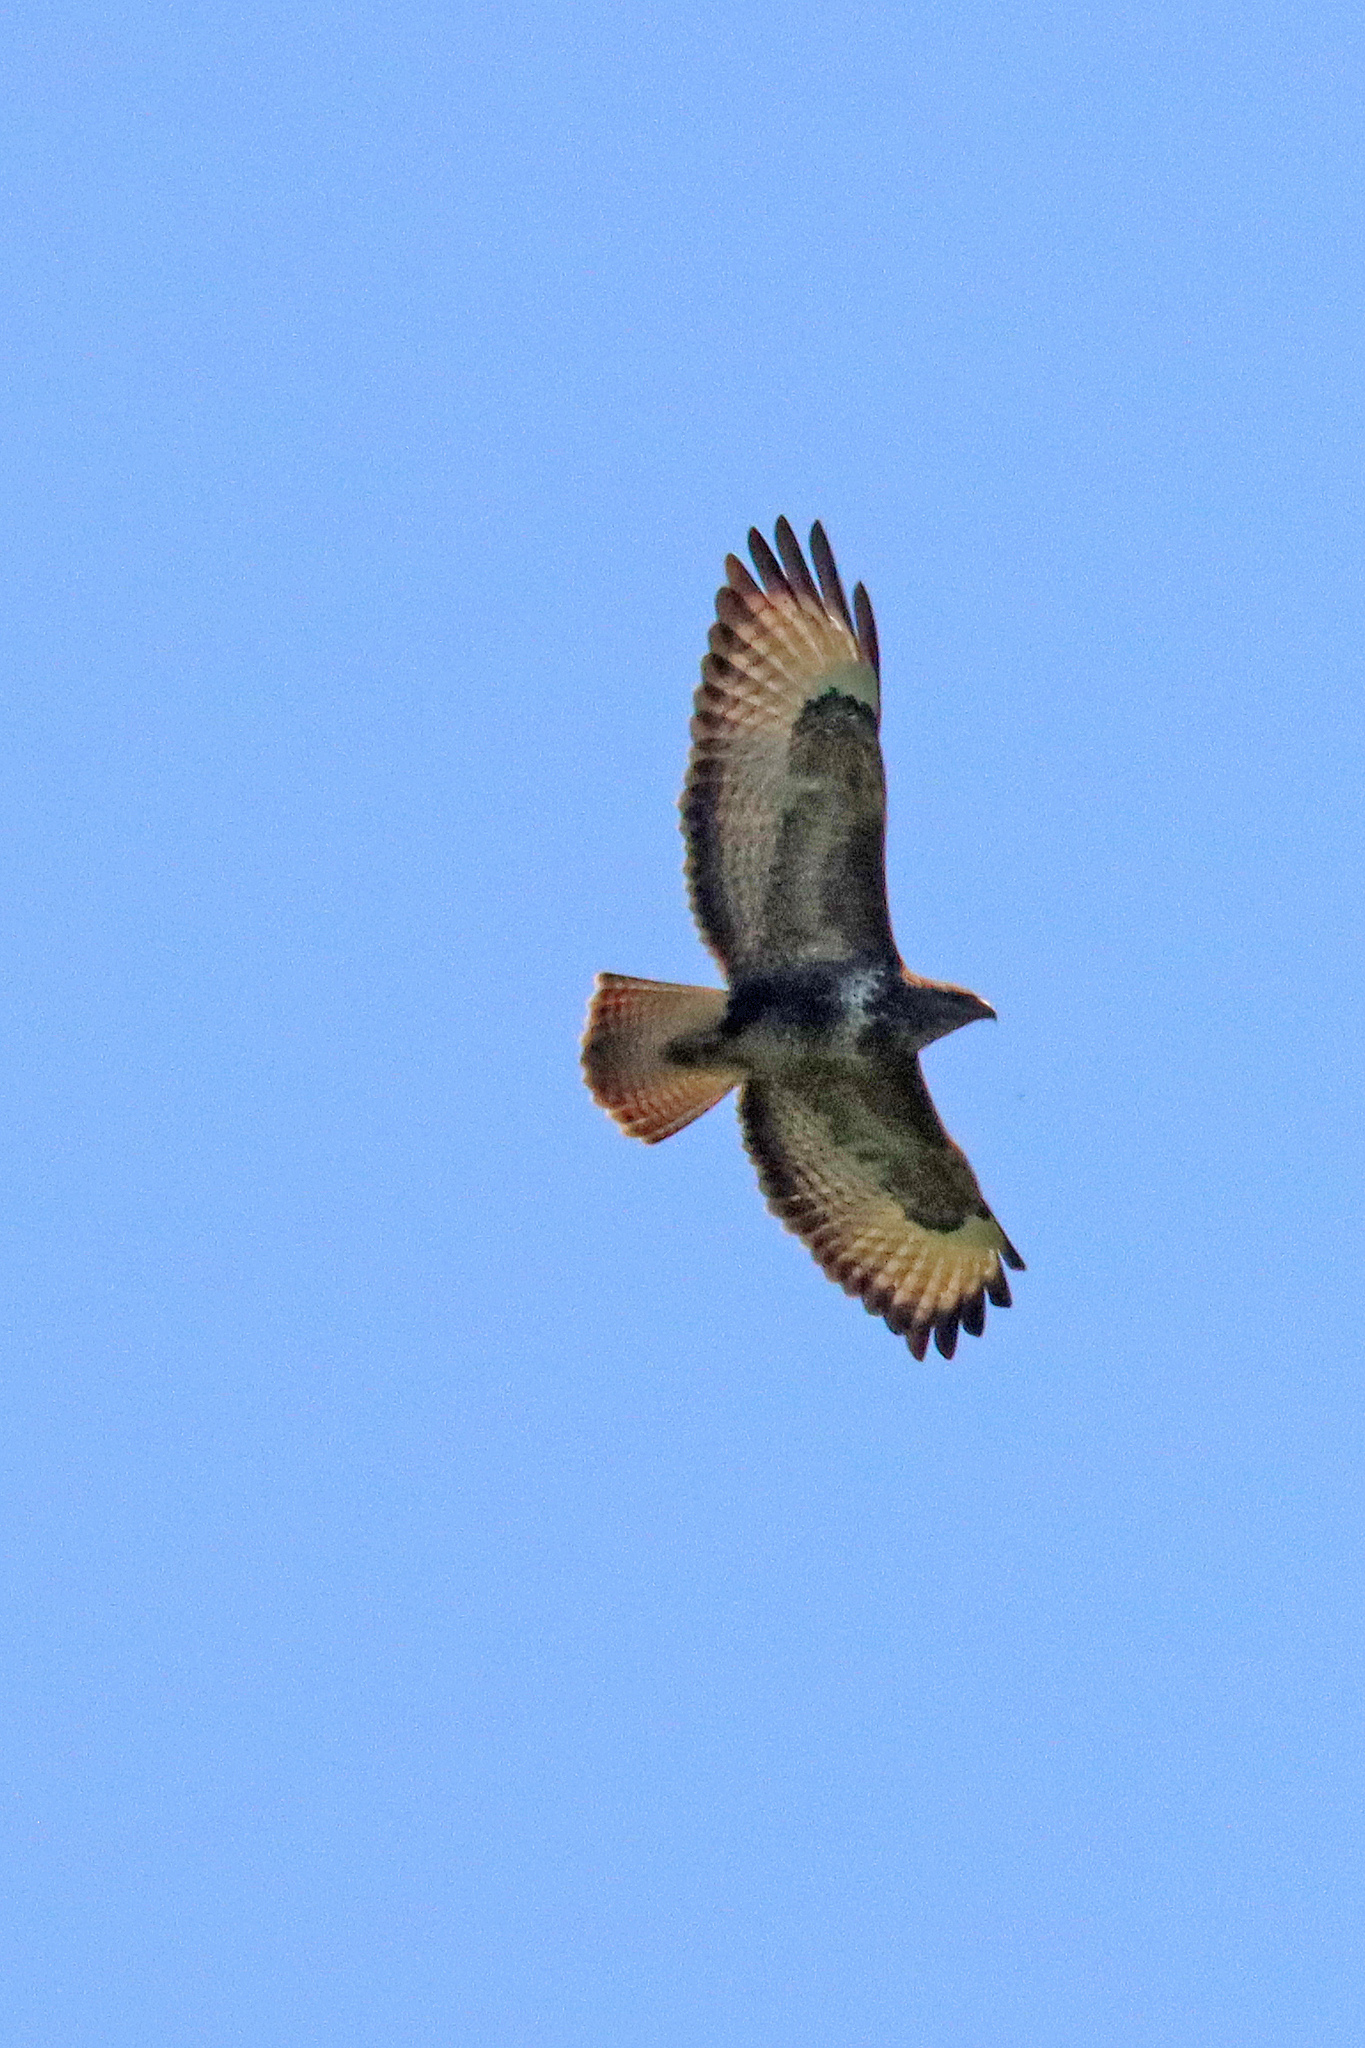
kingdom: Animalia
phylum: Chordata
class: Aves
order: Accipitriformes
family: Accipitridae
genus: Buteo
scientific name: Buteo buteo
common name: Common buzzard
